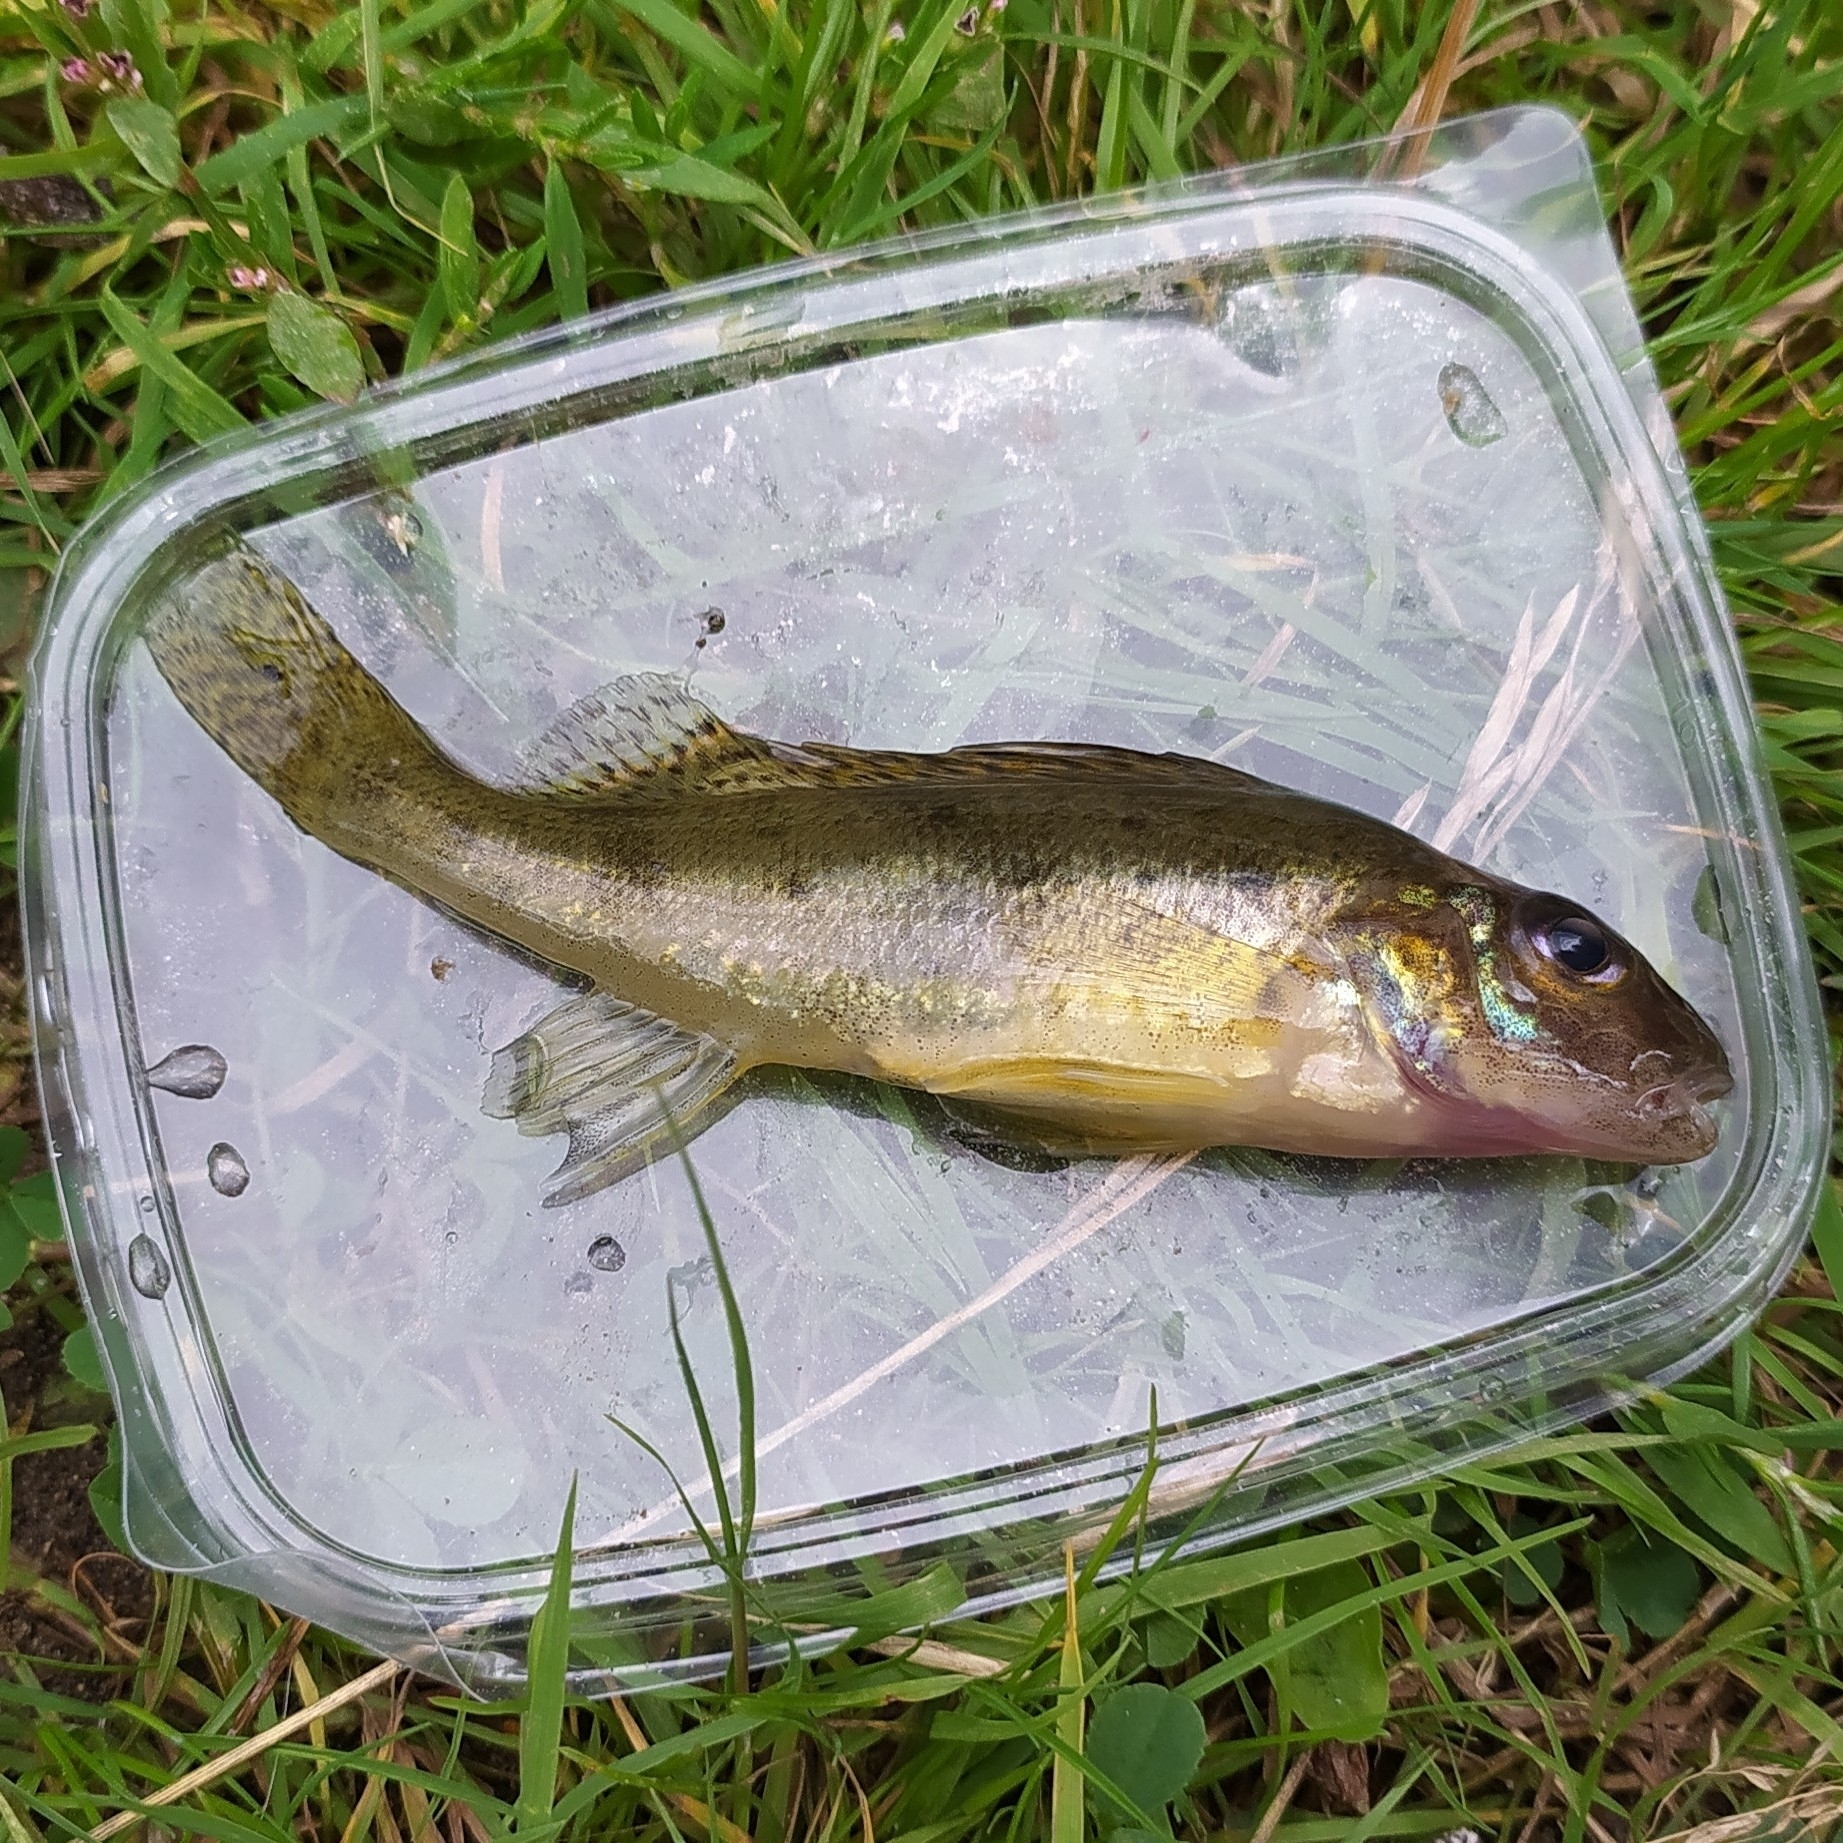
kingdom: Animalia
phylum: Chordata
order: Perciformes
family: Percidae
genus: Gymnocephalus
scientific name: Gymnocephalus cernua
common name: Ruffe
